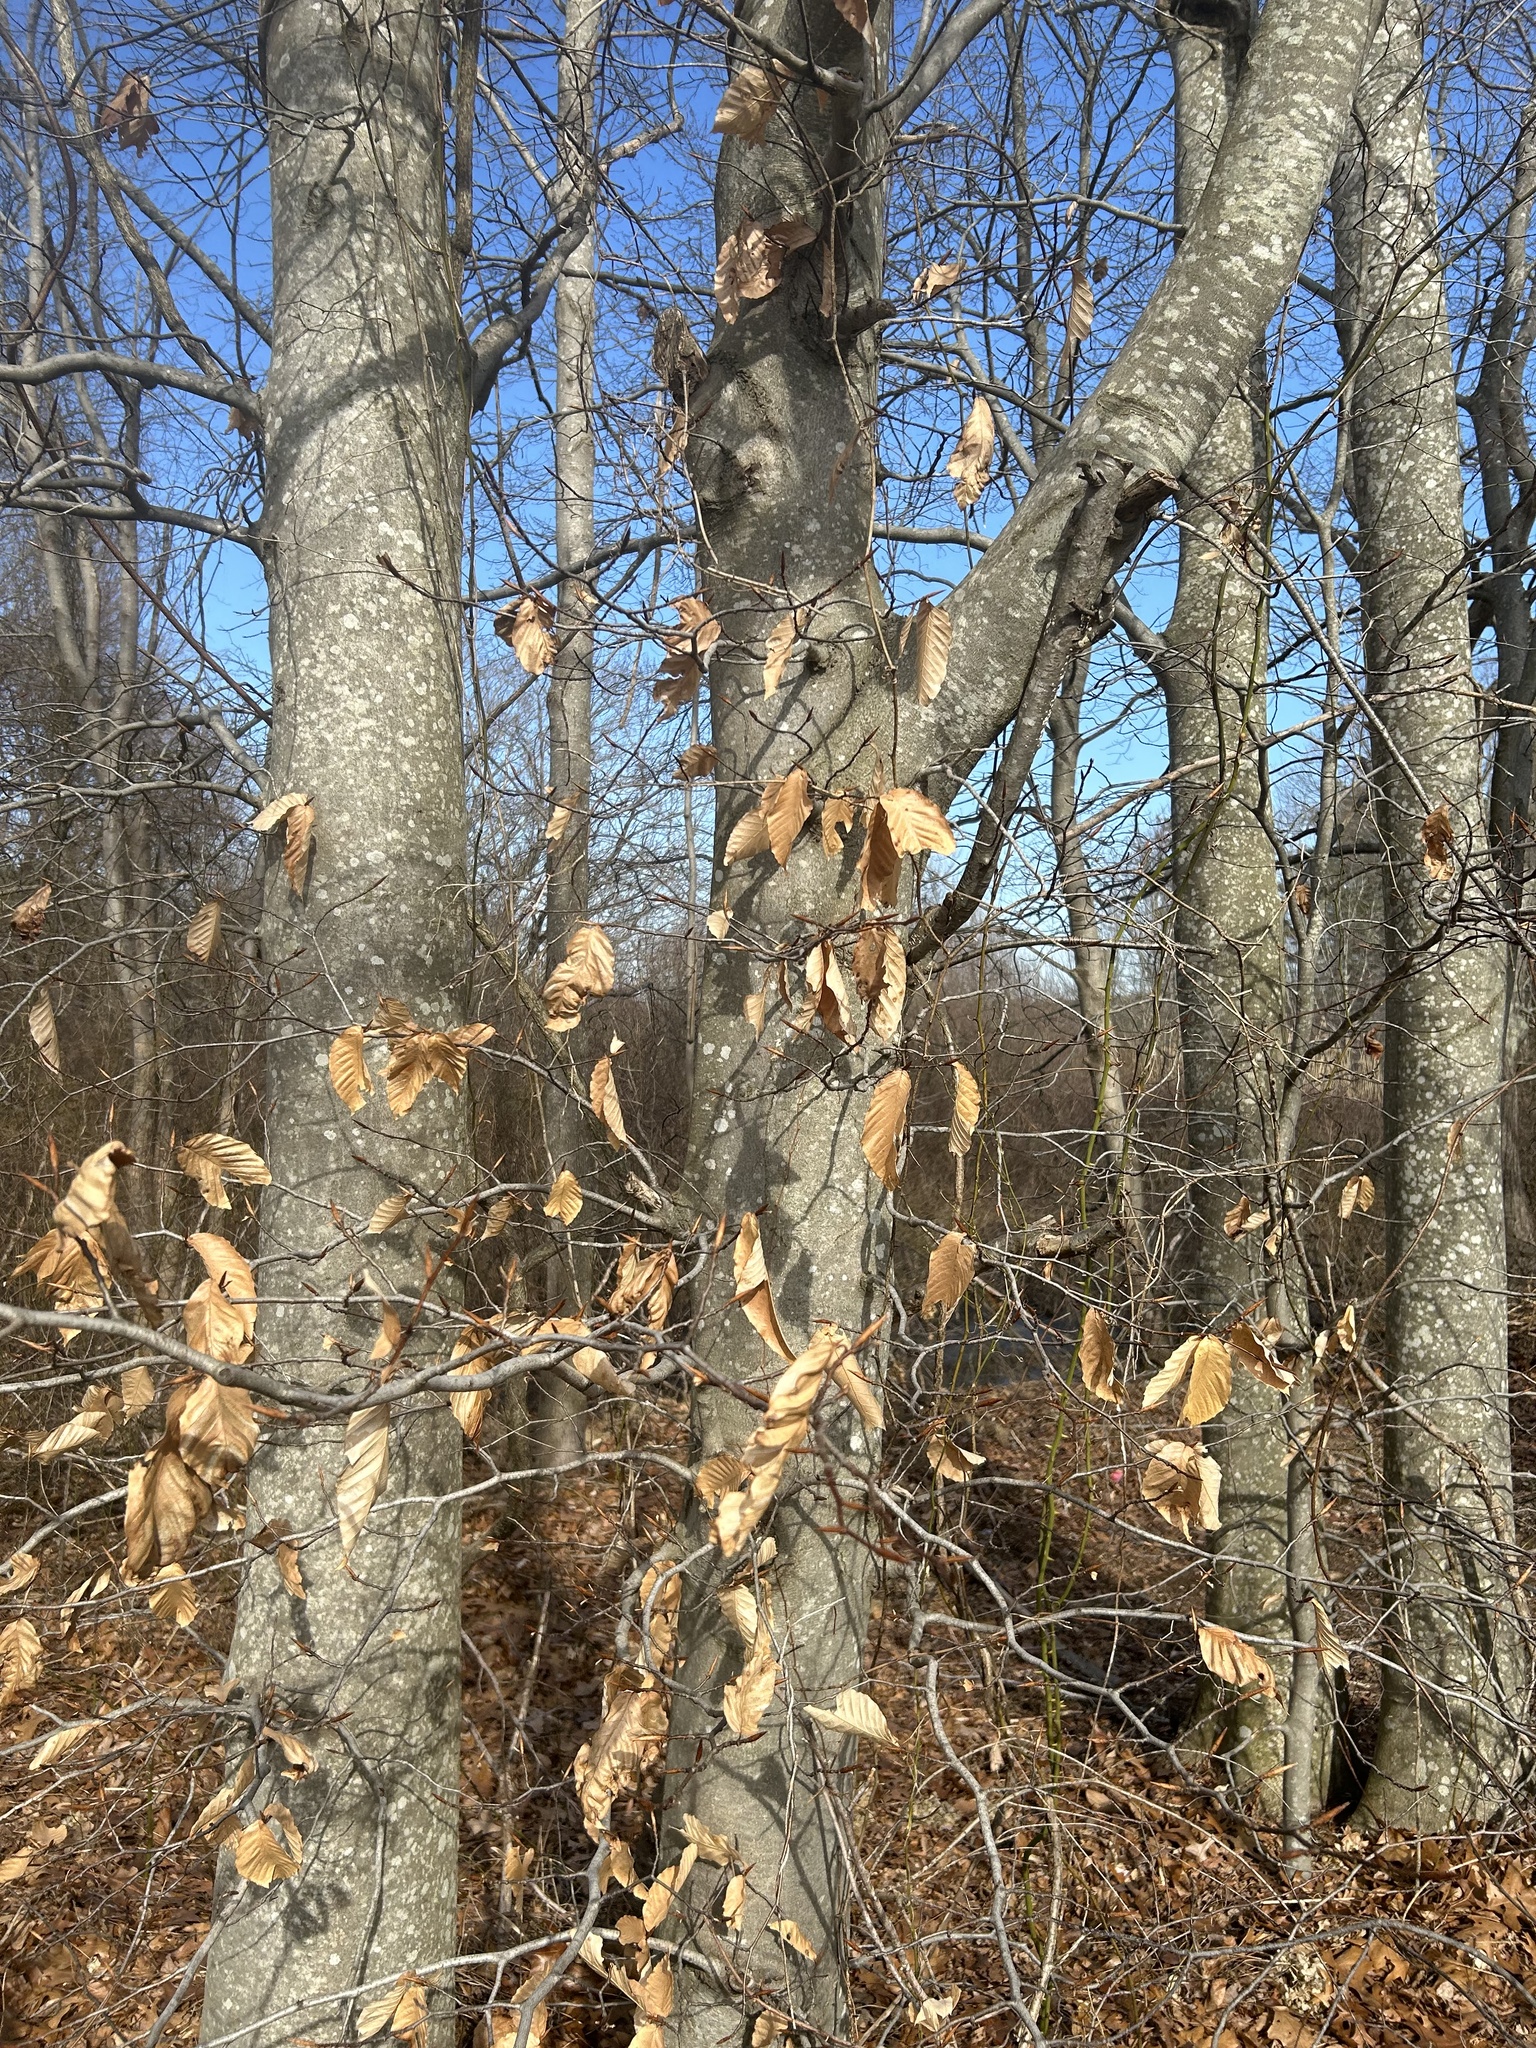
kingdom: Plantae
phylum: Tracheophyta
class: Magnoliopsida
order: Fagales
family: Fagaceae
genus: Fagus
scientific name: Fagus grandifolia
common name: American beech
